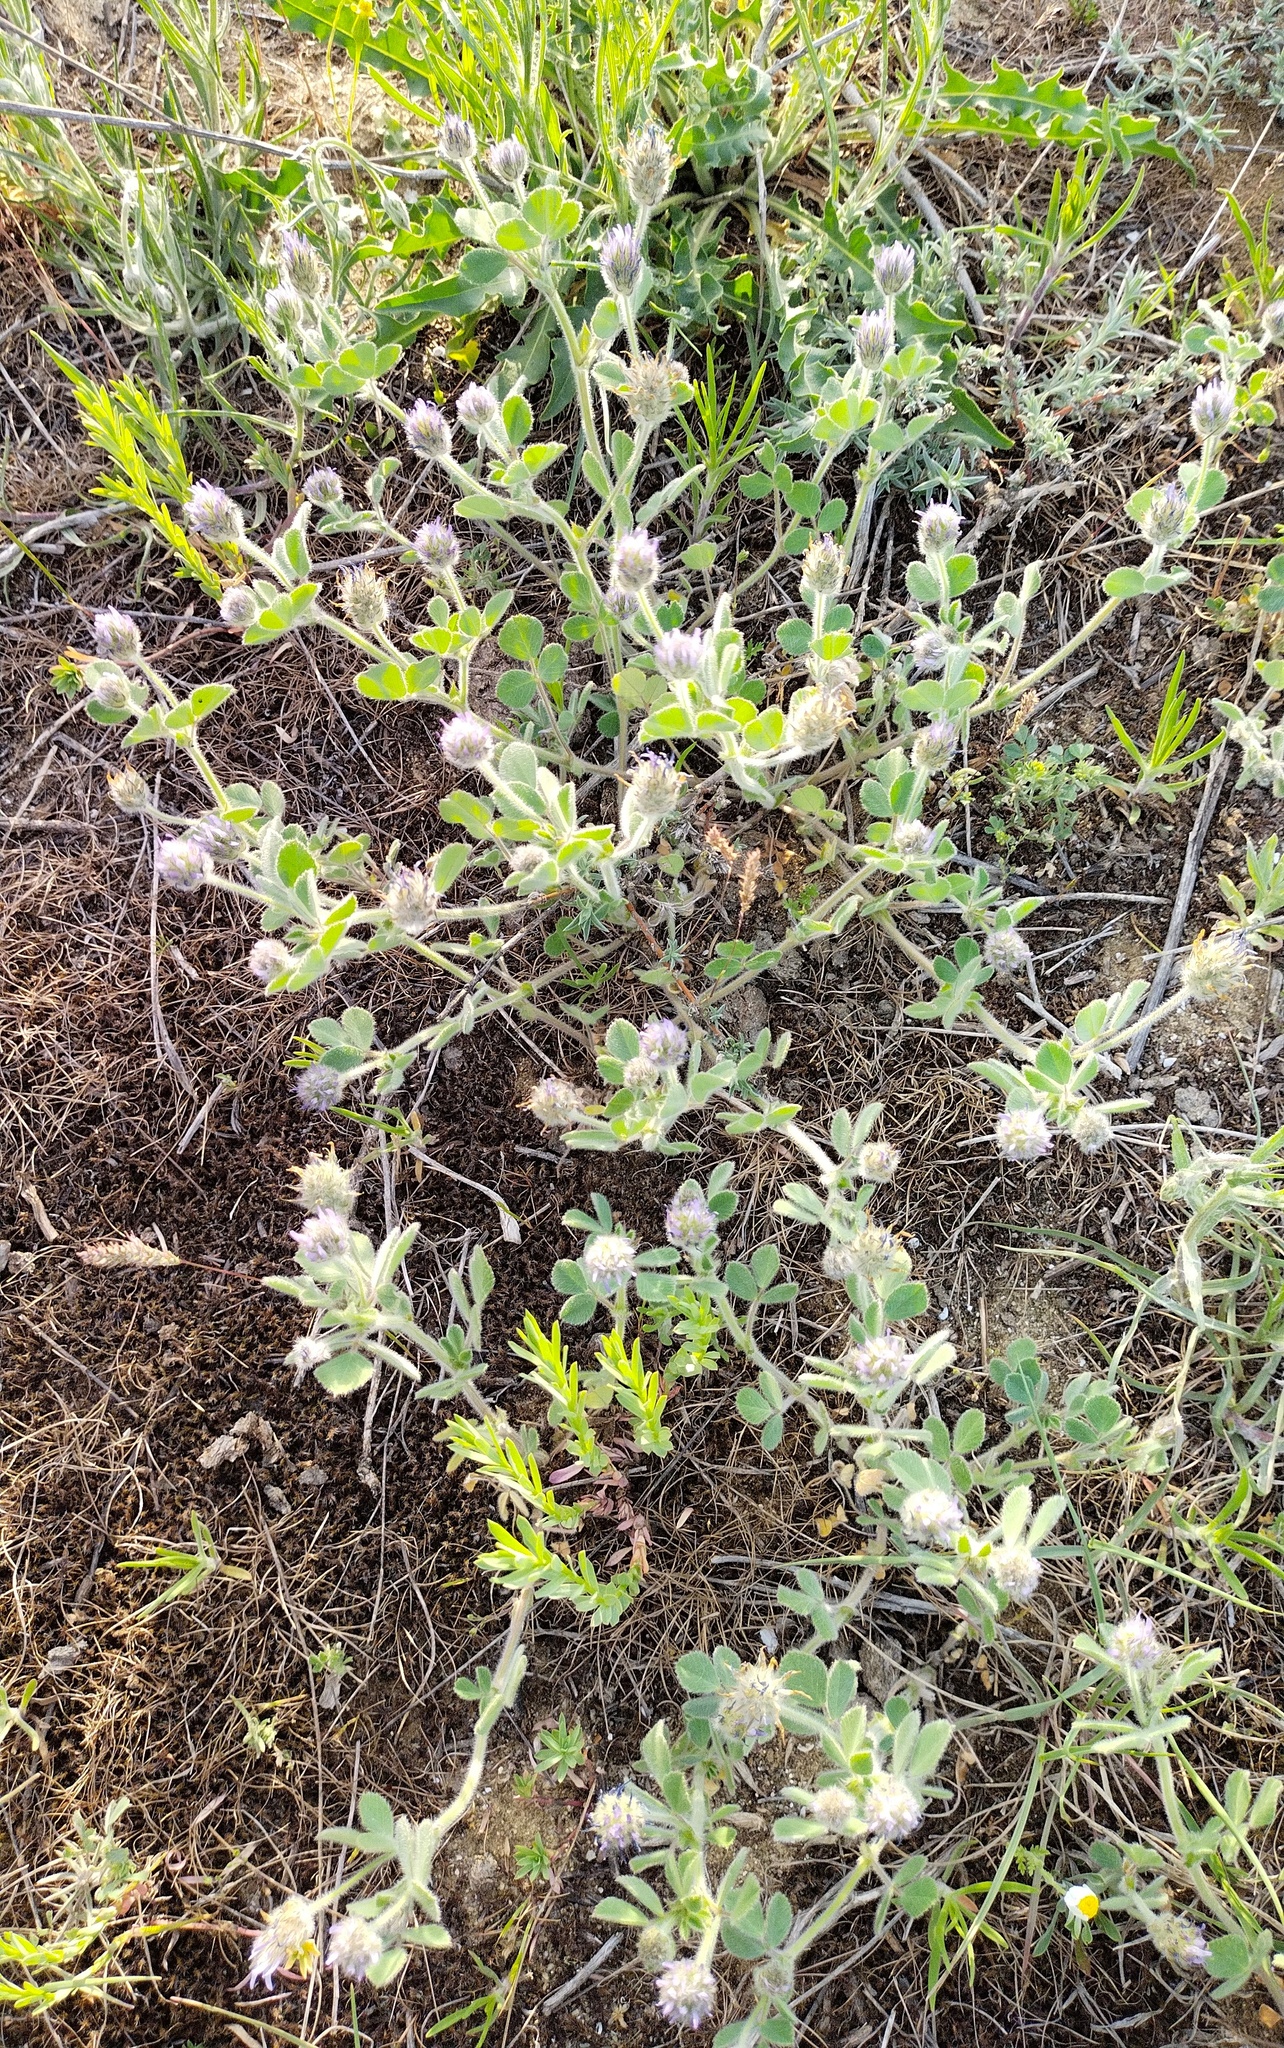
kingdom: Plantae
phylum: Tracheophyta
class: Magnoliopsida
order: Fabales
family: Fabaceae
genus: Trigonella
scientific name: Trigonella coerulescens
